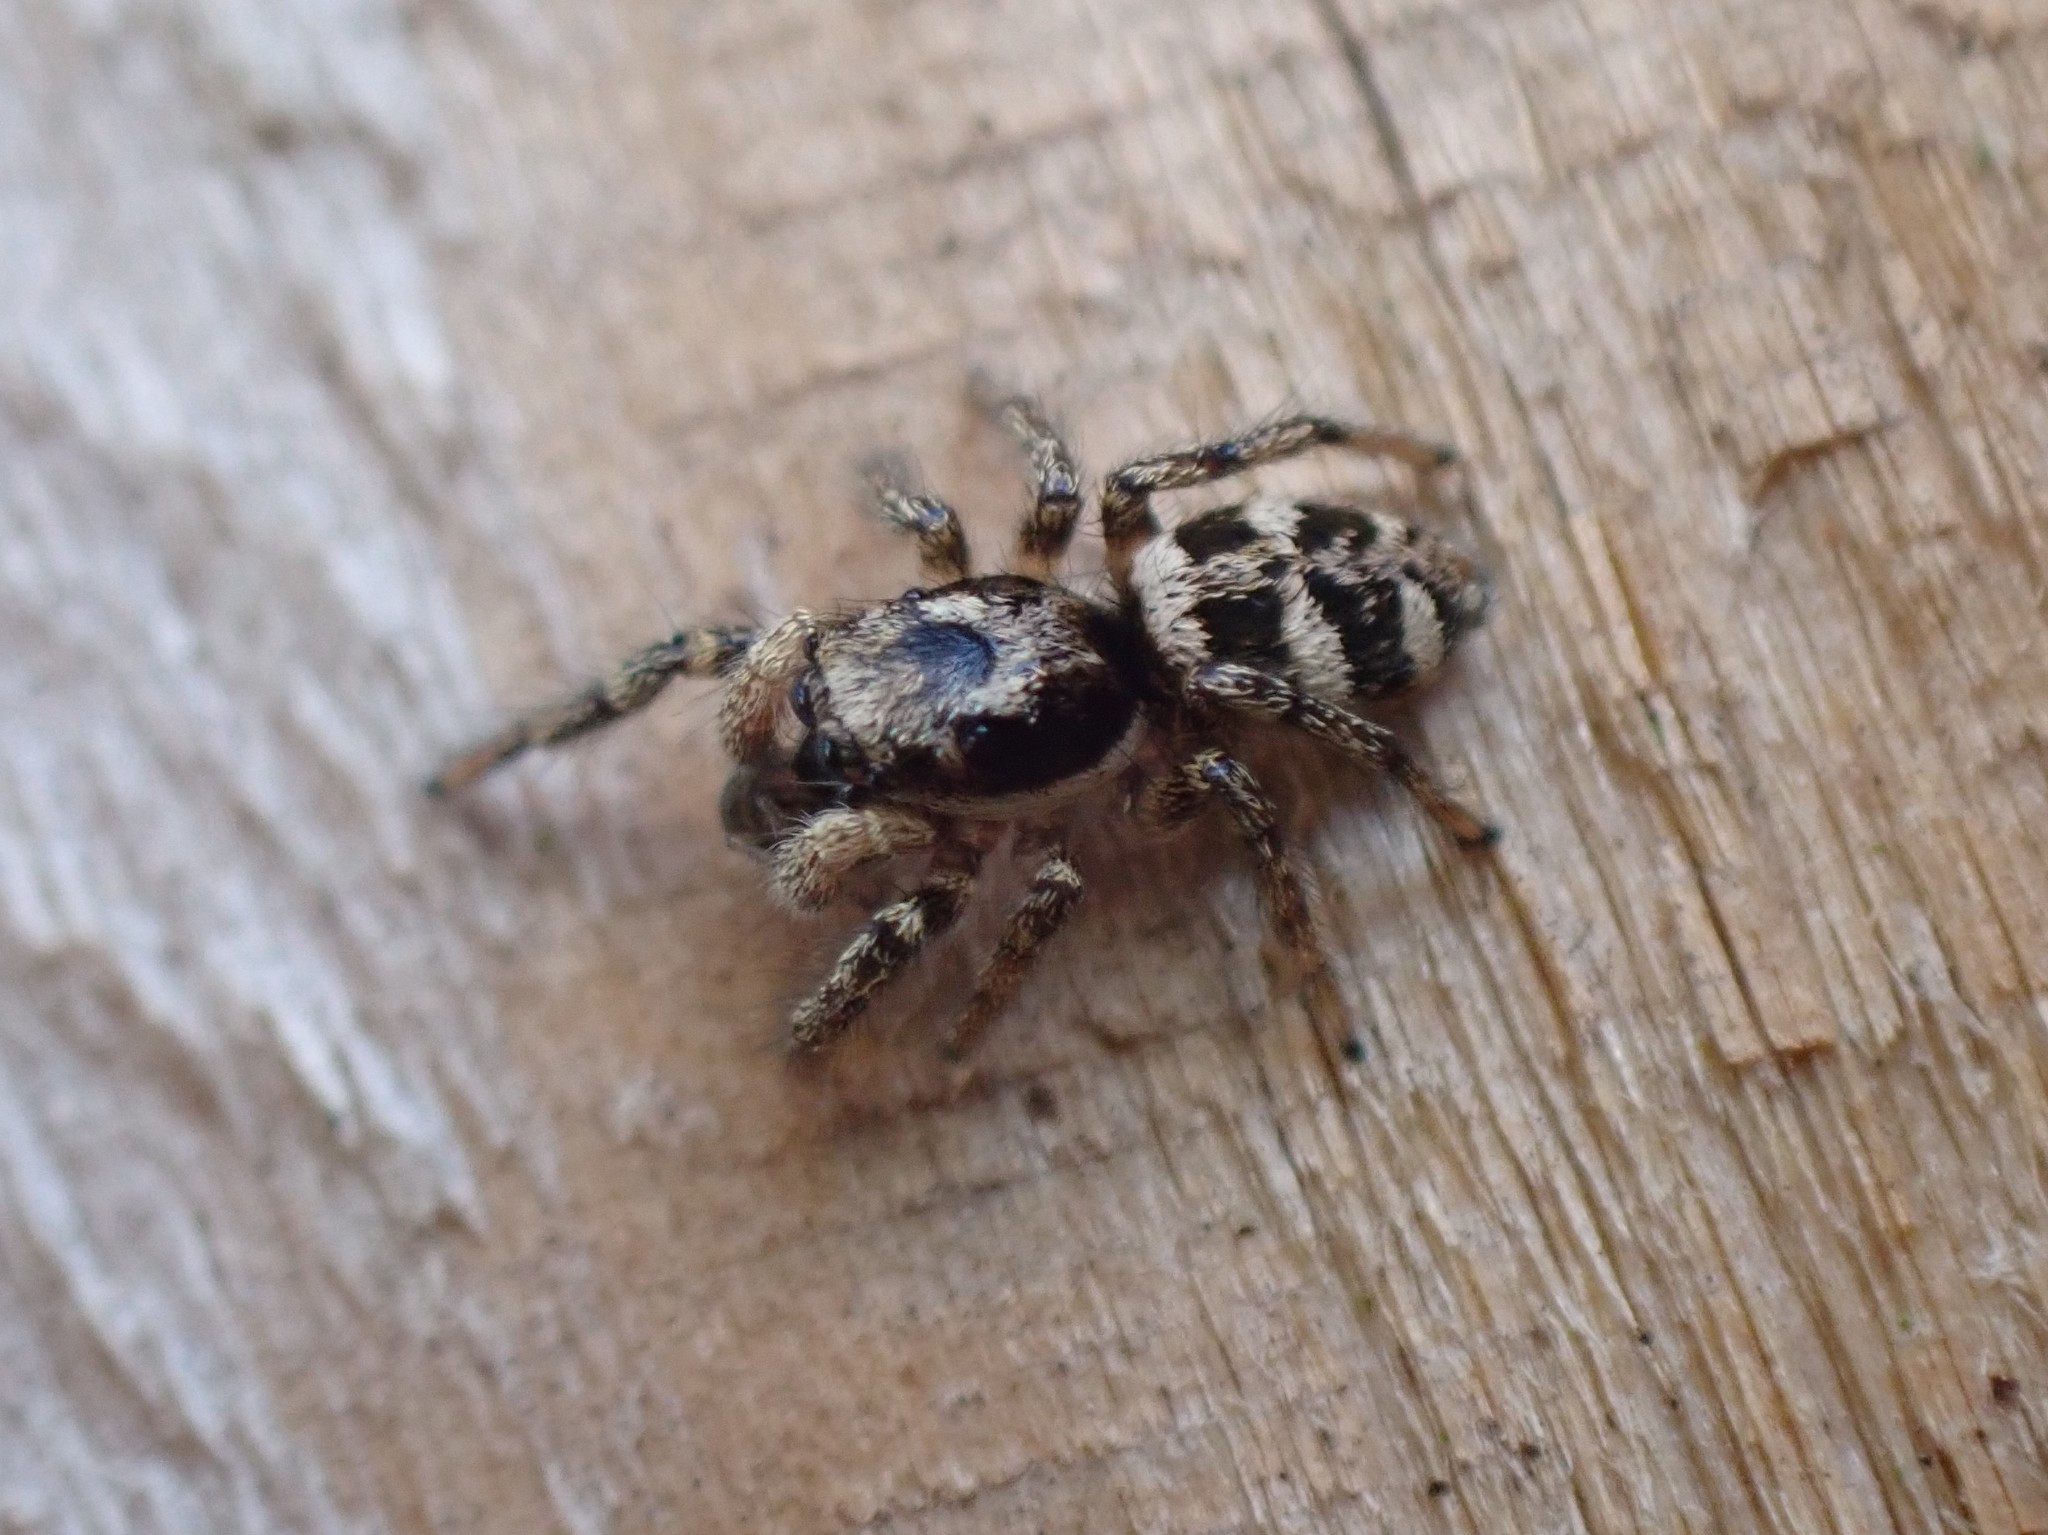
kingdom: Animalia
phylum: Arthropoda
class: Arachnida
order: Araneae
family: Salticidae
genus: Salticus
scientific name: Salticus scenicus
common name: Zebra jumper
